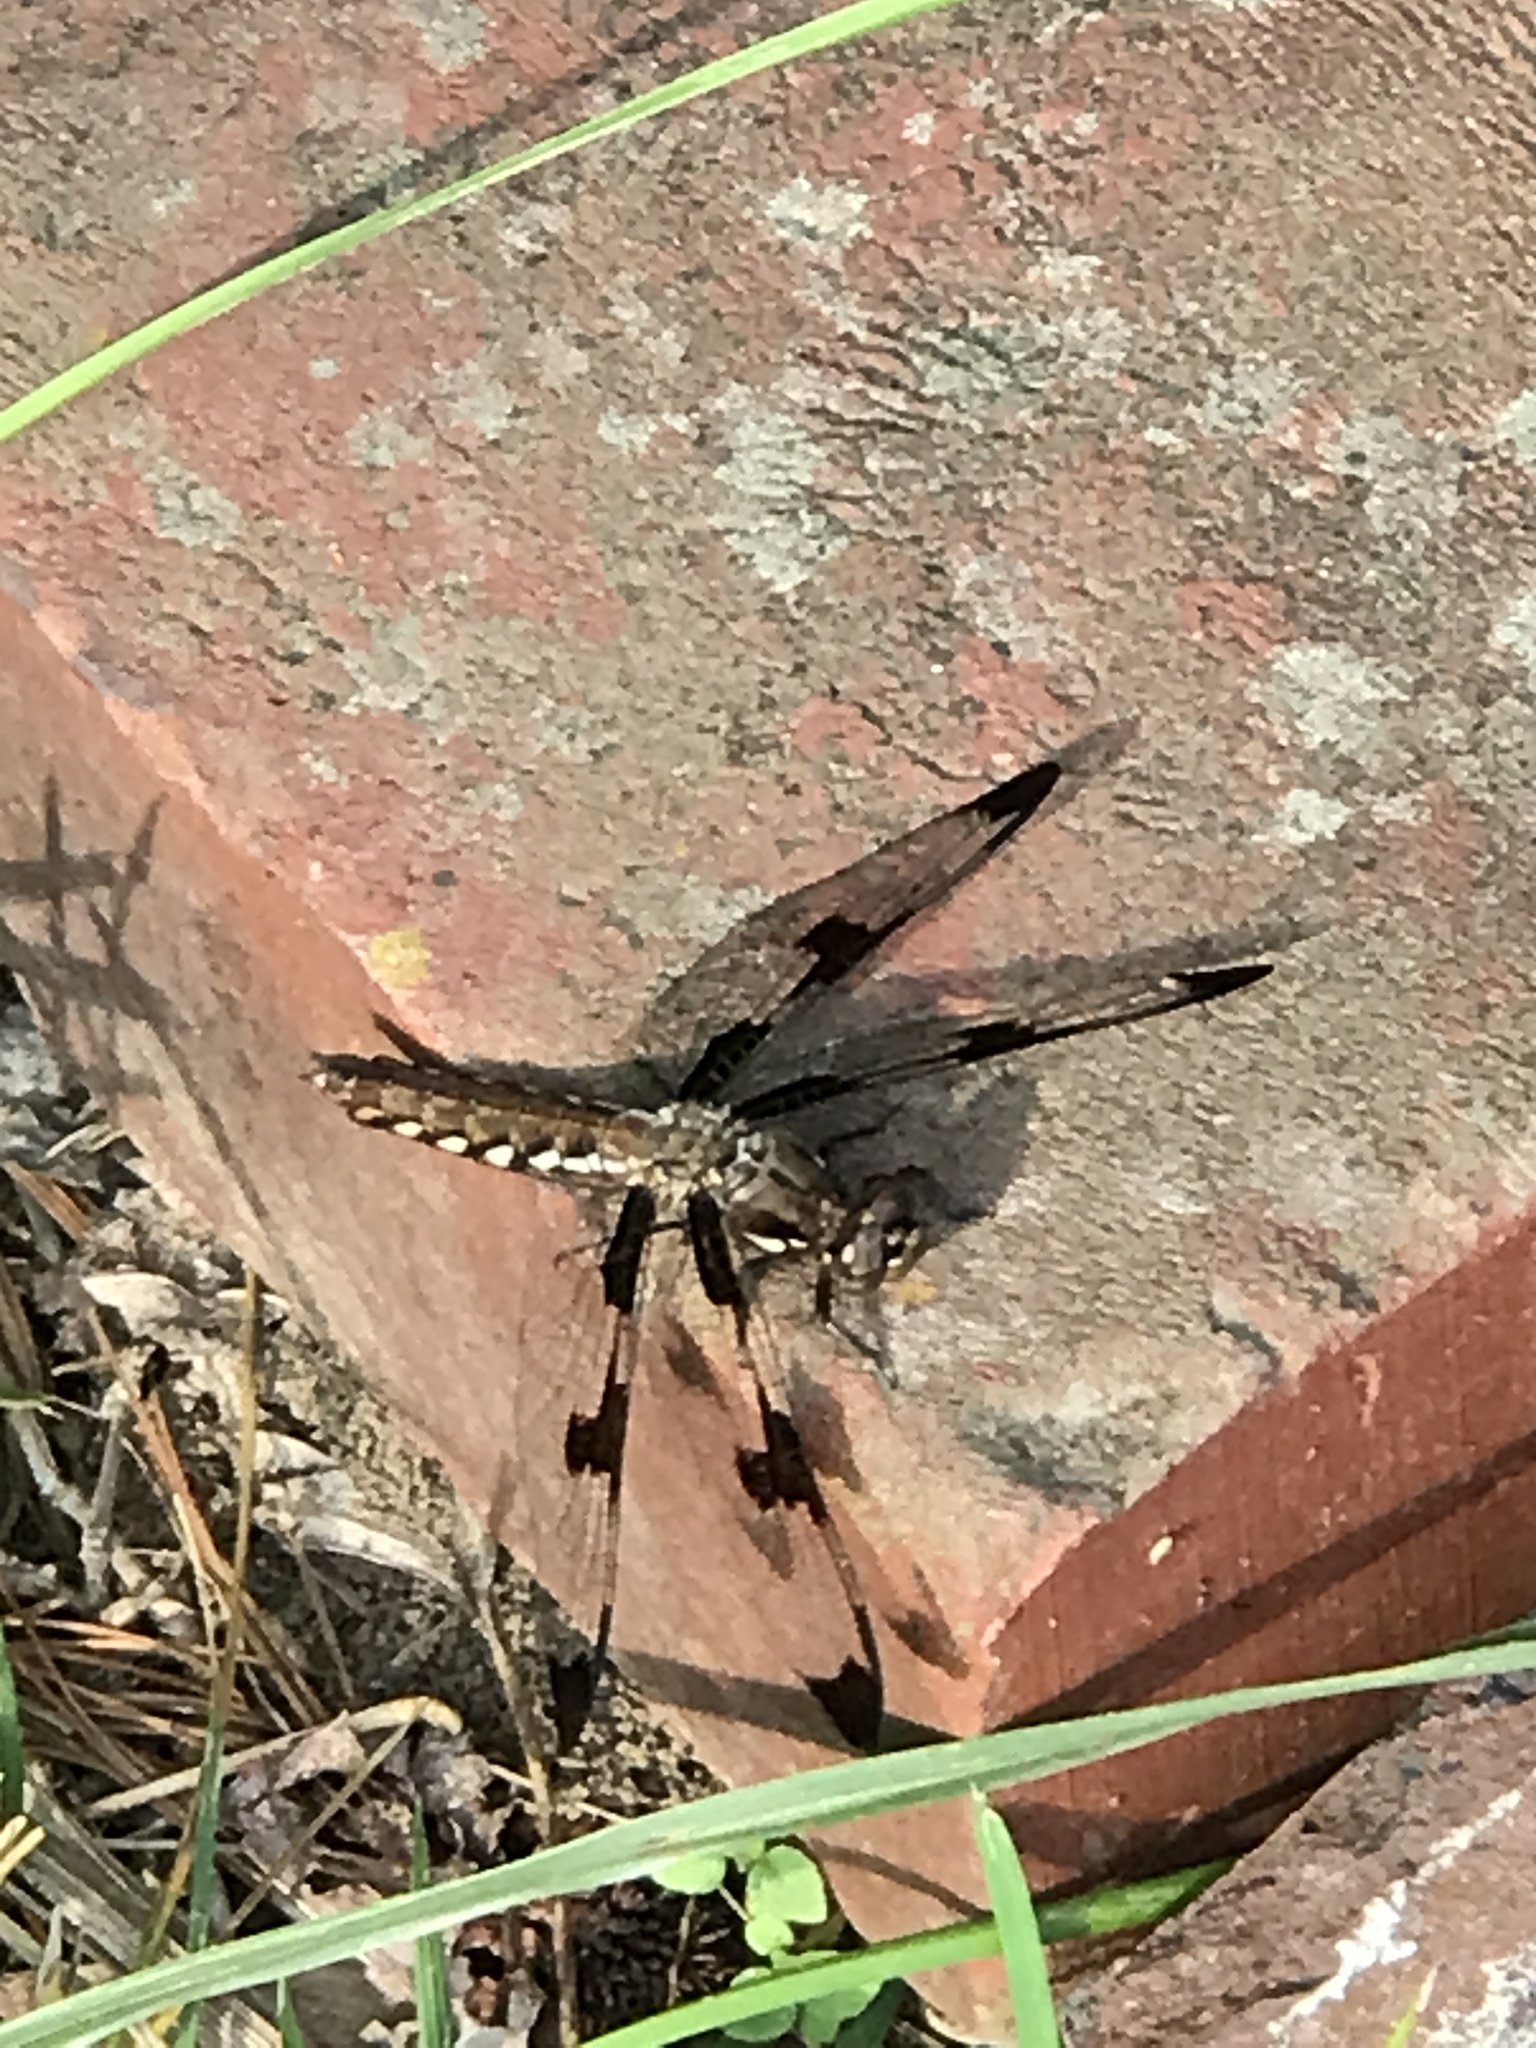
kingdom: Animalia
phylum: Arthropoda
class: Insecta
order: Odonata
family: Libellulidae
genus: Plathemis
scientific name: Plathemis lydia
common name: Common whitetail
